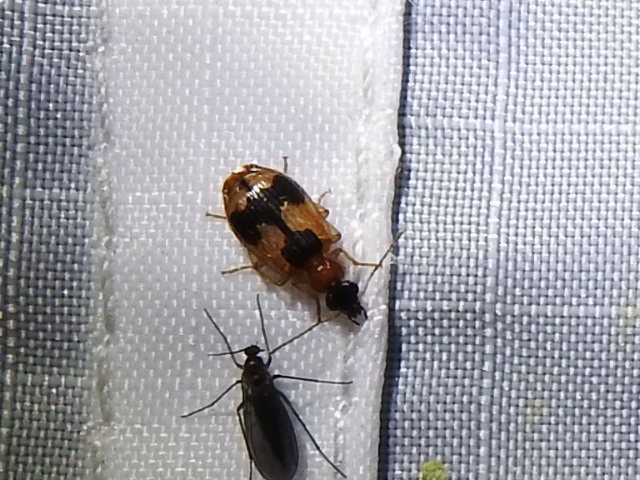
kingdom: Animalia
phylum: Arthropoda
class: Insecta
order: Coleoptera
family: Carabidae
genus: Lebia
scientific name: Lebia analis
